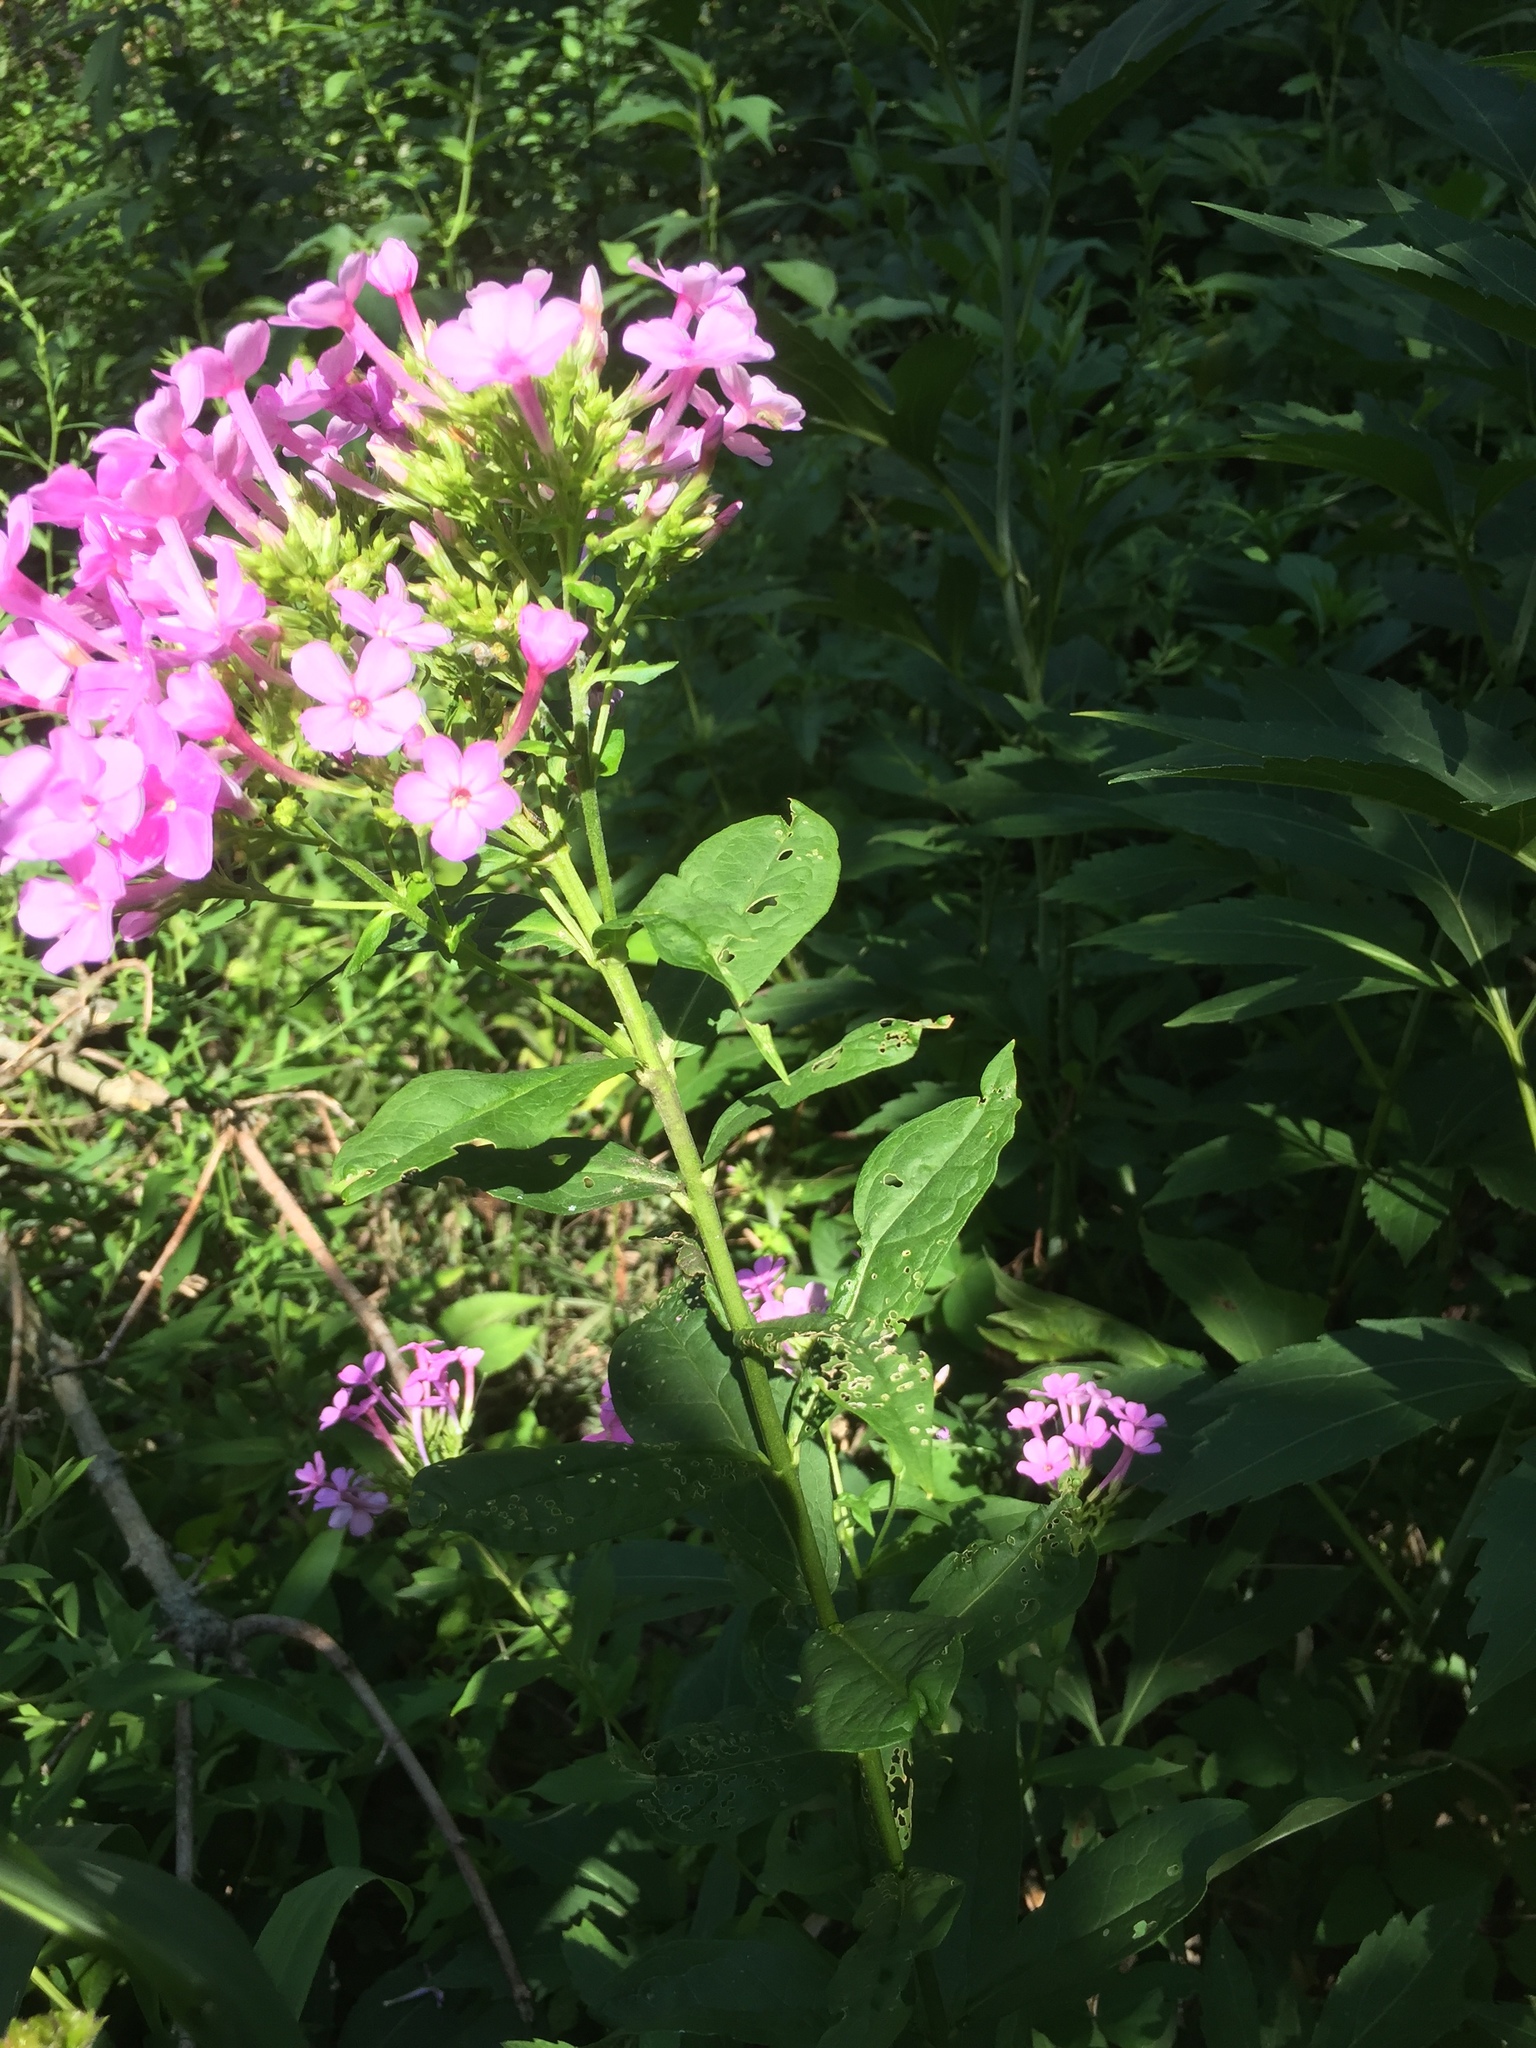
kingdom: Plantae
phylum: Tracheophyta
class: Magnoliopsida
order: Ericales
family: Polemoniaceae
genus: Phlox
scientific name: Phlox paniculata
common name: Fall phlox
